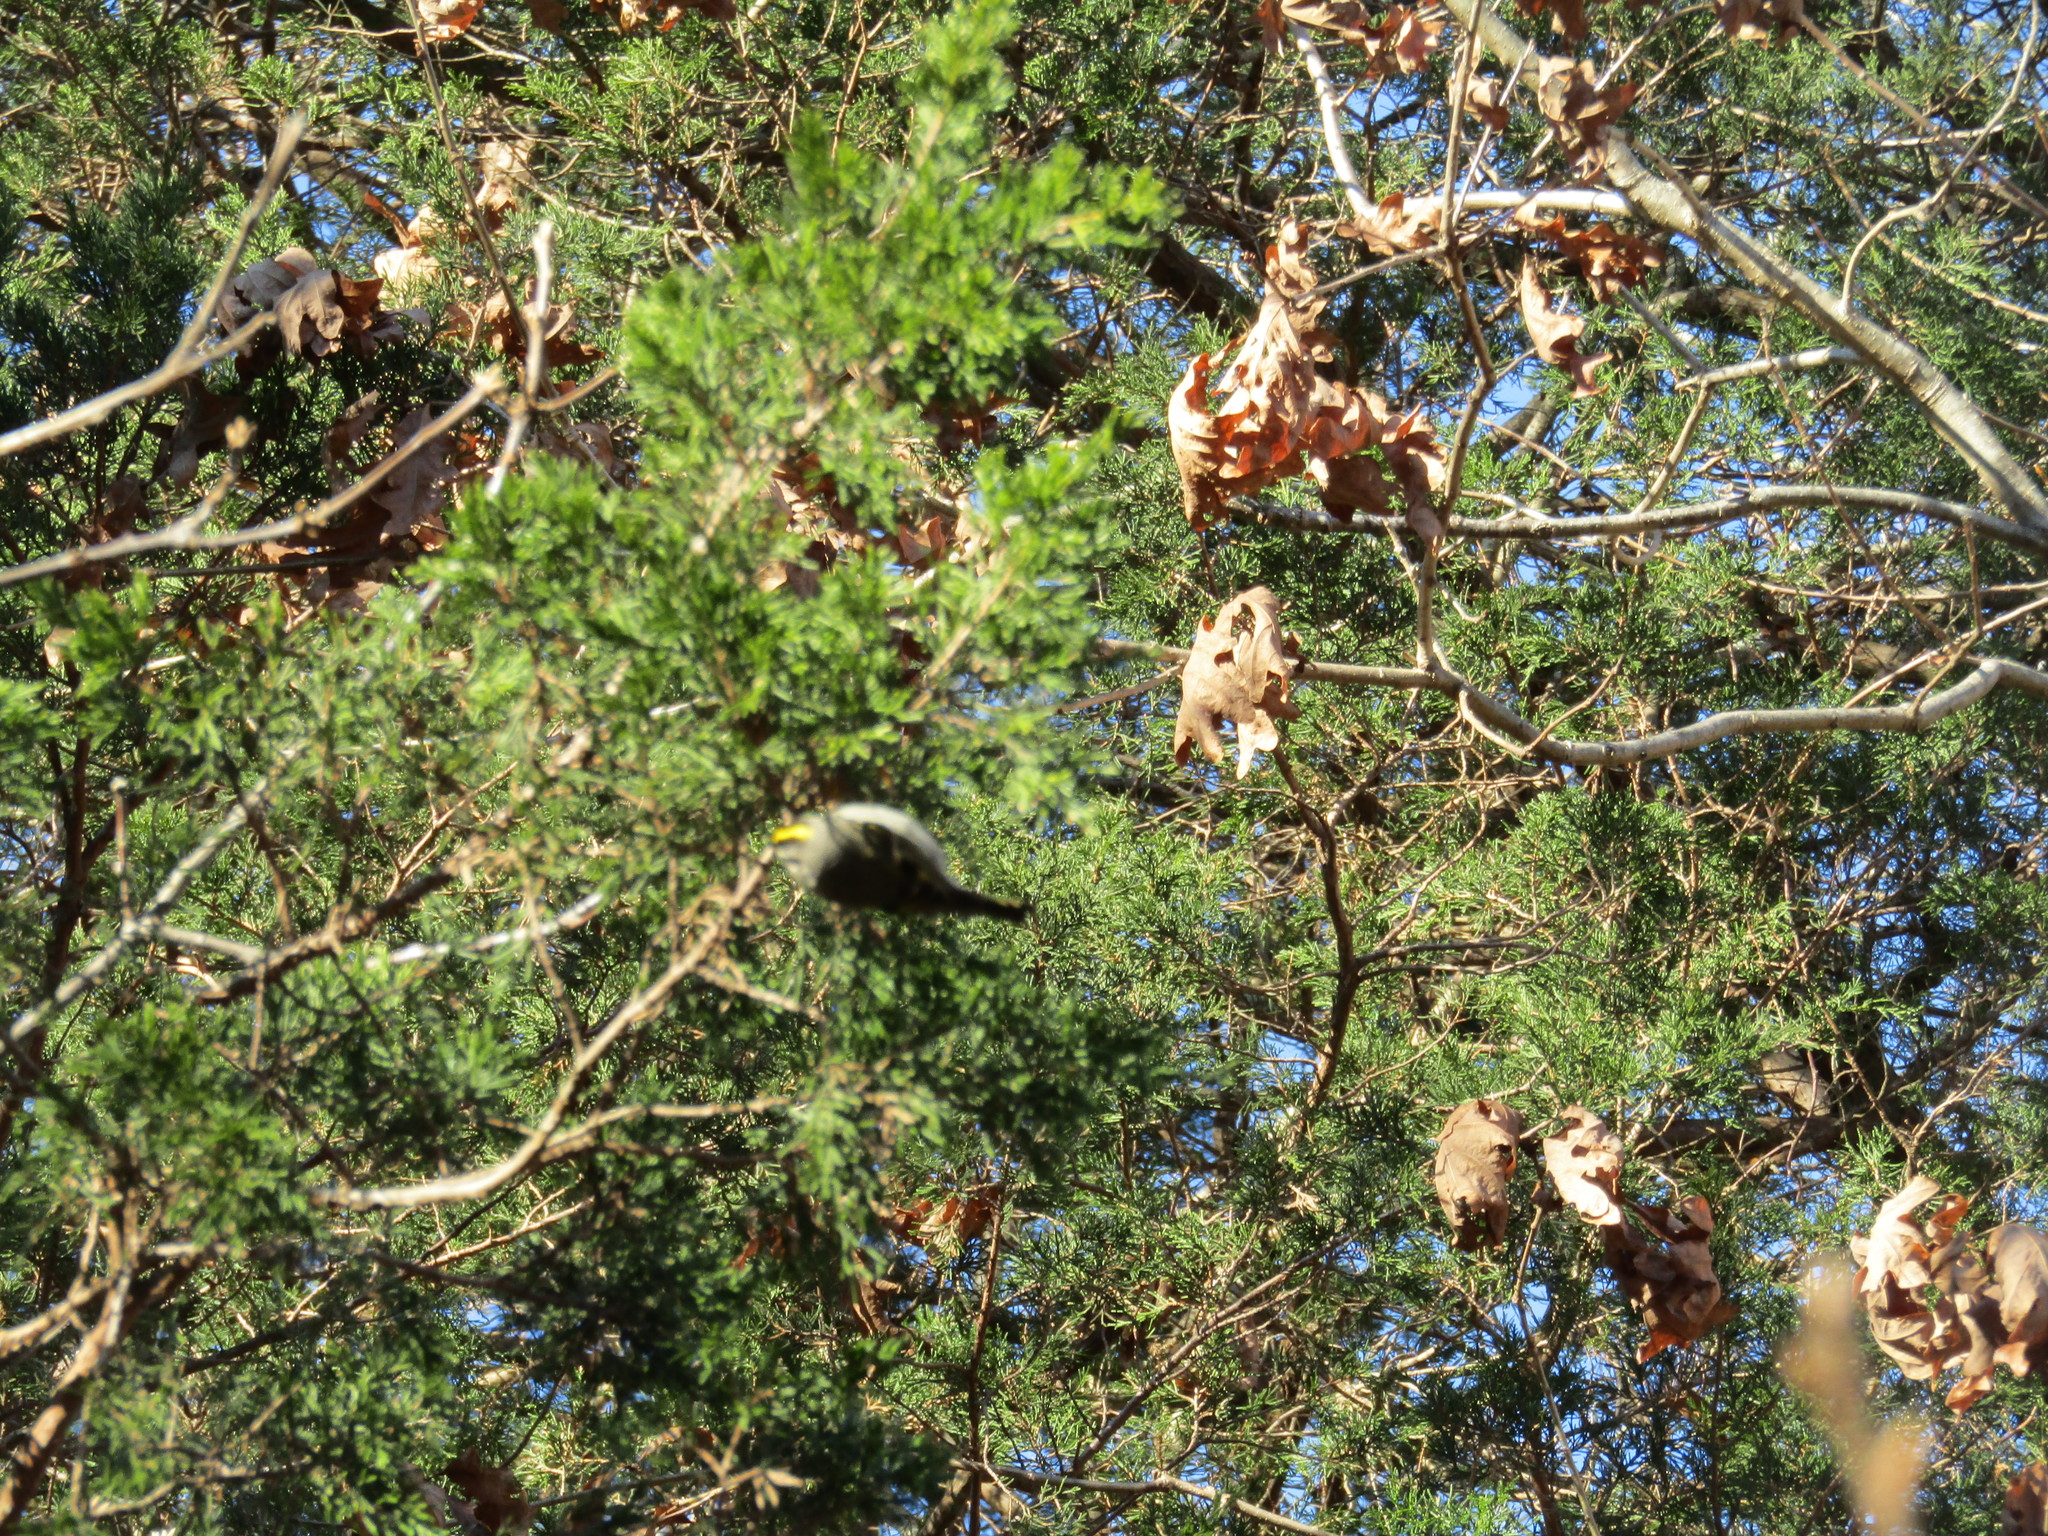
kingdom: Animalia
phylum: Chordata
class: Aves
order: Passeriformes
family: Regulidae
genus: Regulus
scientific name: Regulus satrapa
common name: Golden-crowned kinglet
